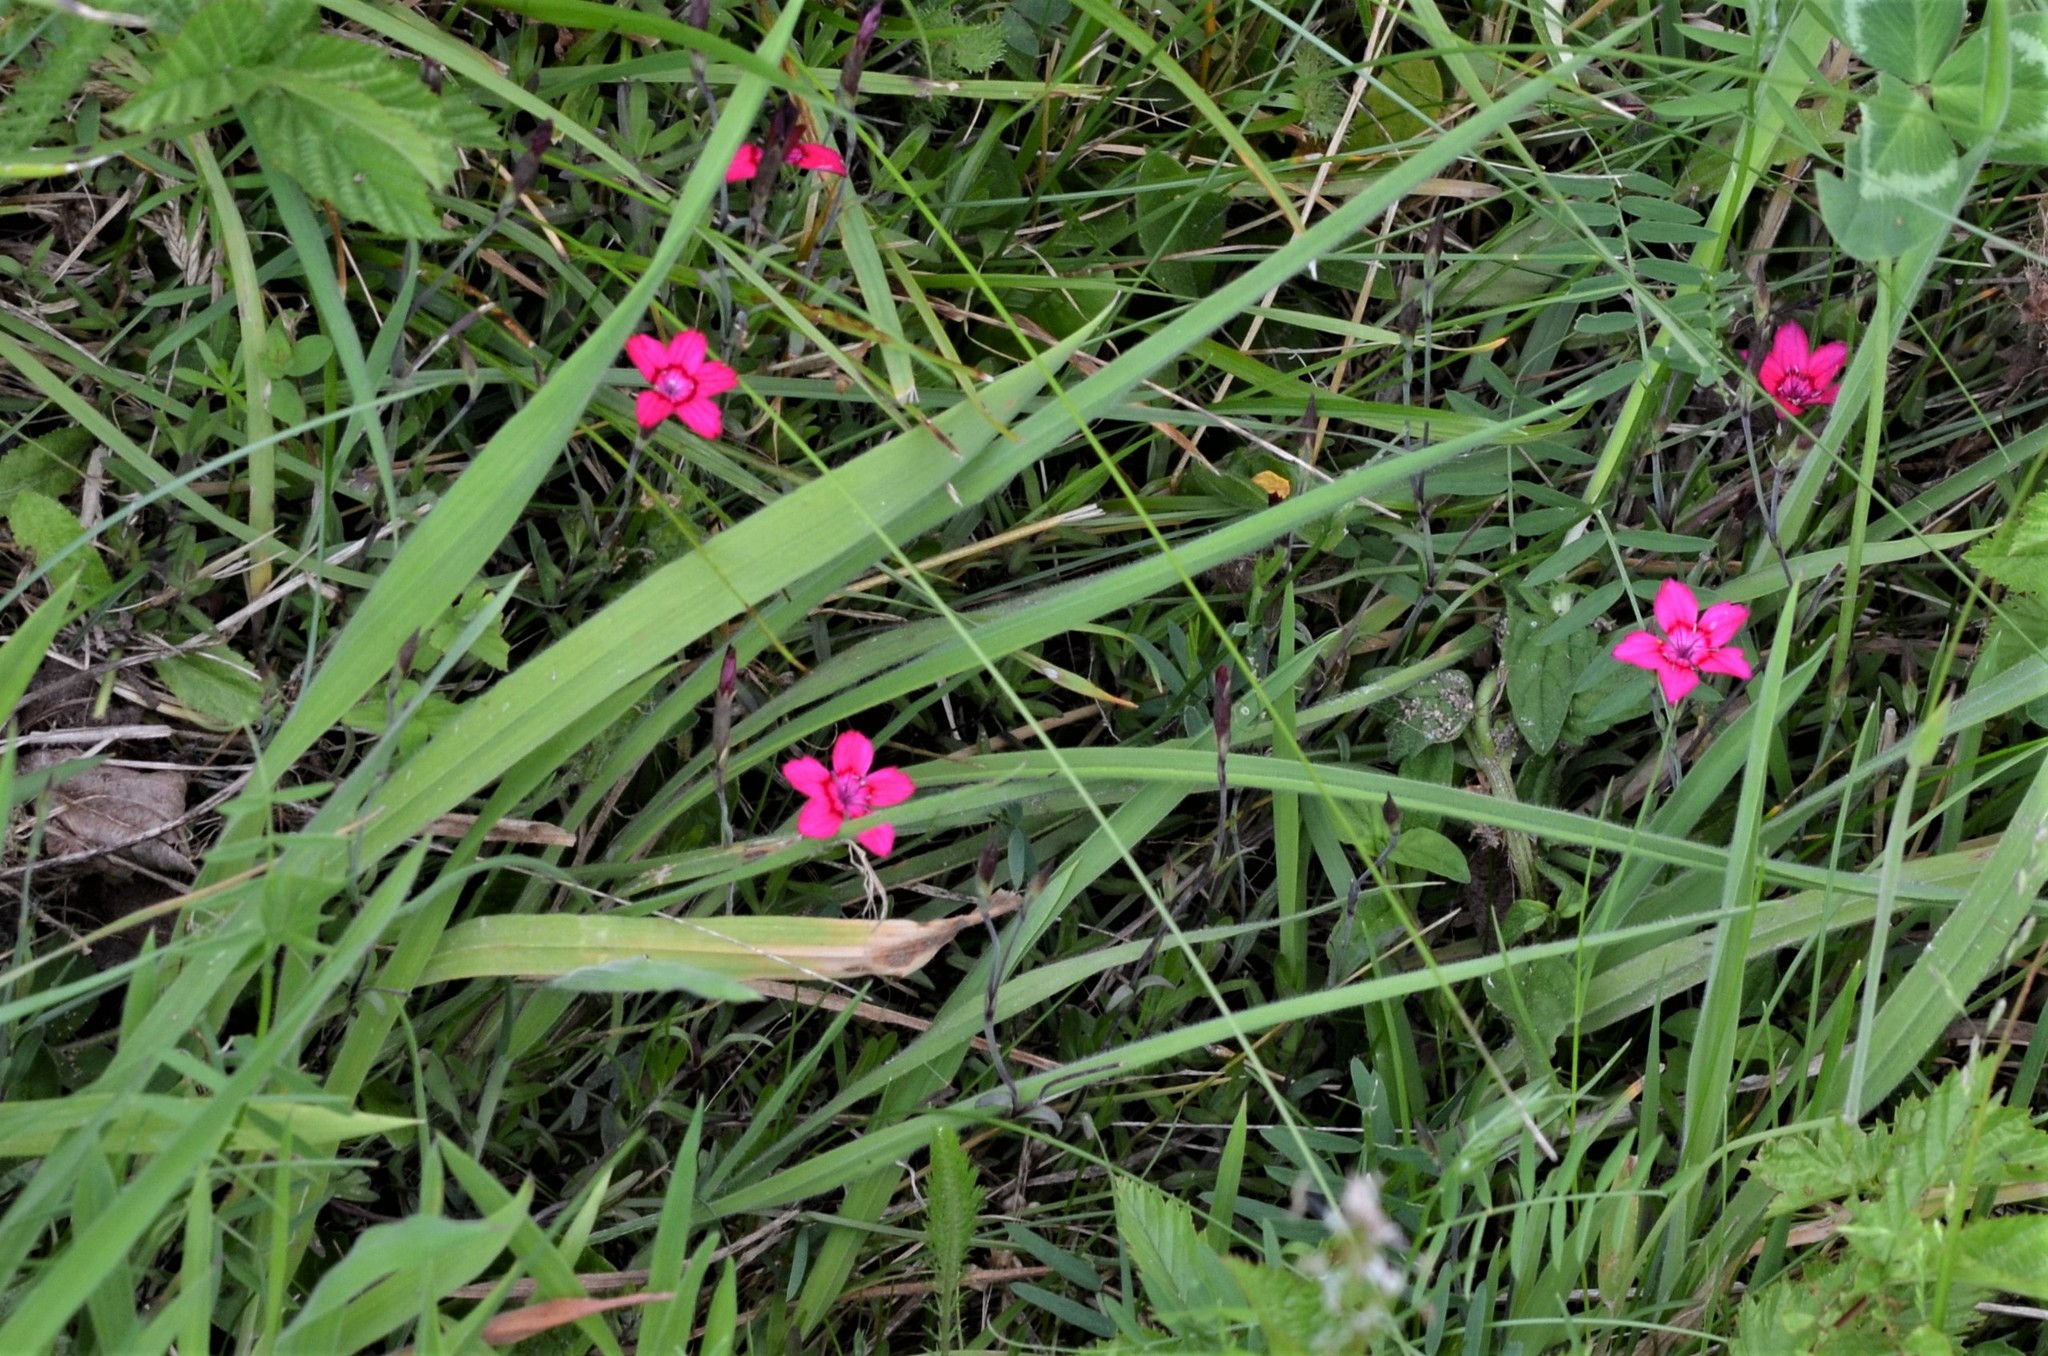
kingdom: Plantae
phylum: Tracheophyta
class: Magnoliopsida
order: Caryophyllales
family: Caryophyllaceae
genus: Dianthus
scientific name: Dianthus deltoides
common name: Maiden pink
